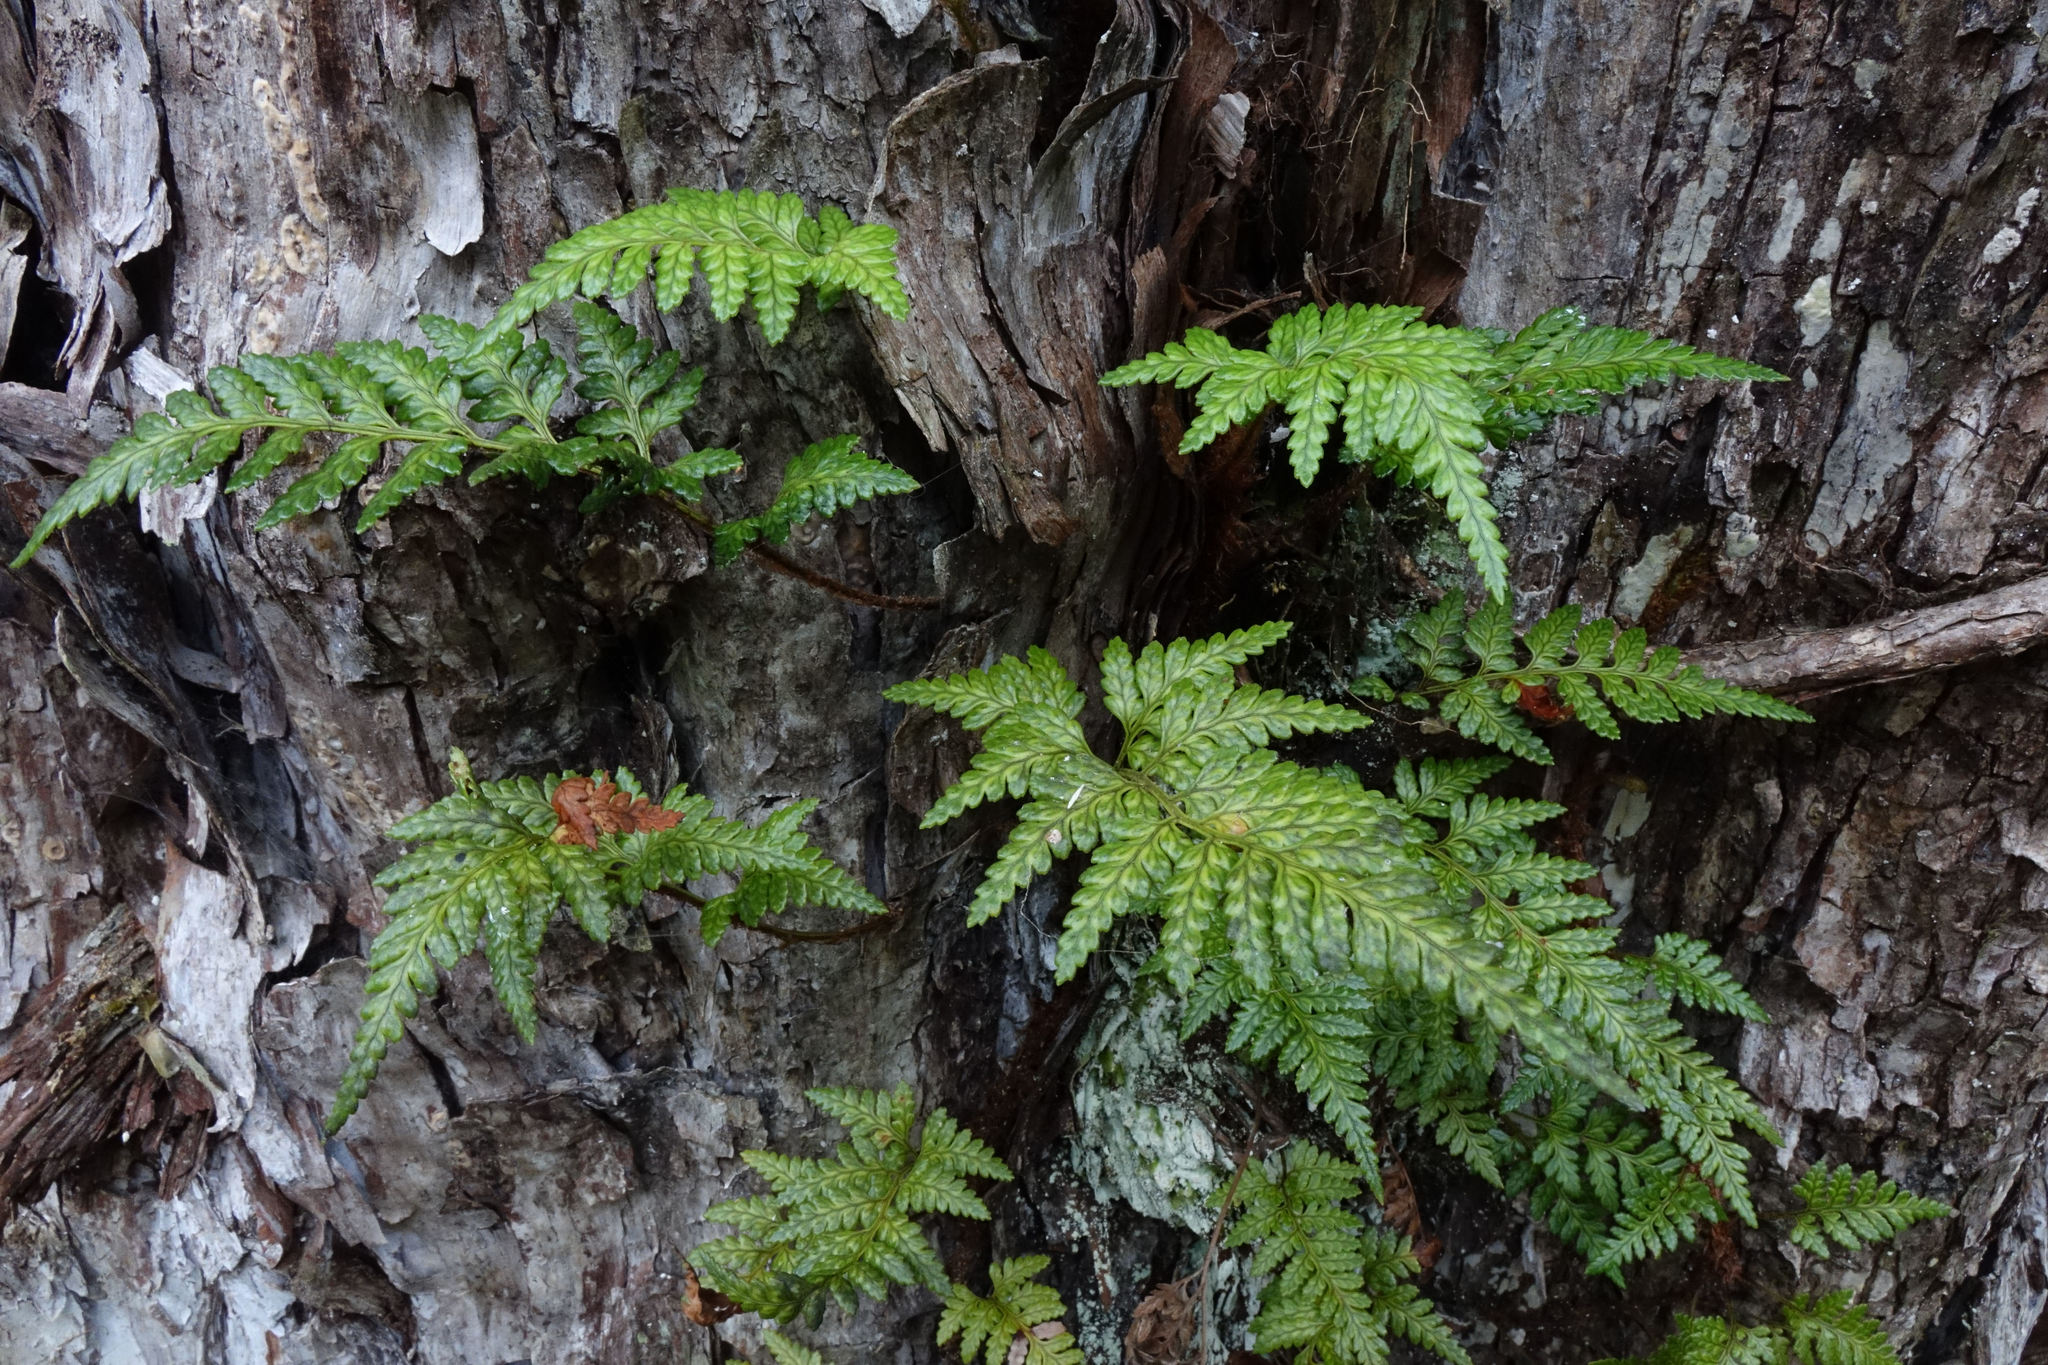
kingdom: Plantae
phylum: Tracheophyta
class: Polypodiopsida
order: Polypodiales
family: Dryopteridaceae
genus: Rumohra
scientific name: Rumohra adiantiformis
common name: Leather fern
